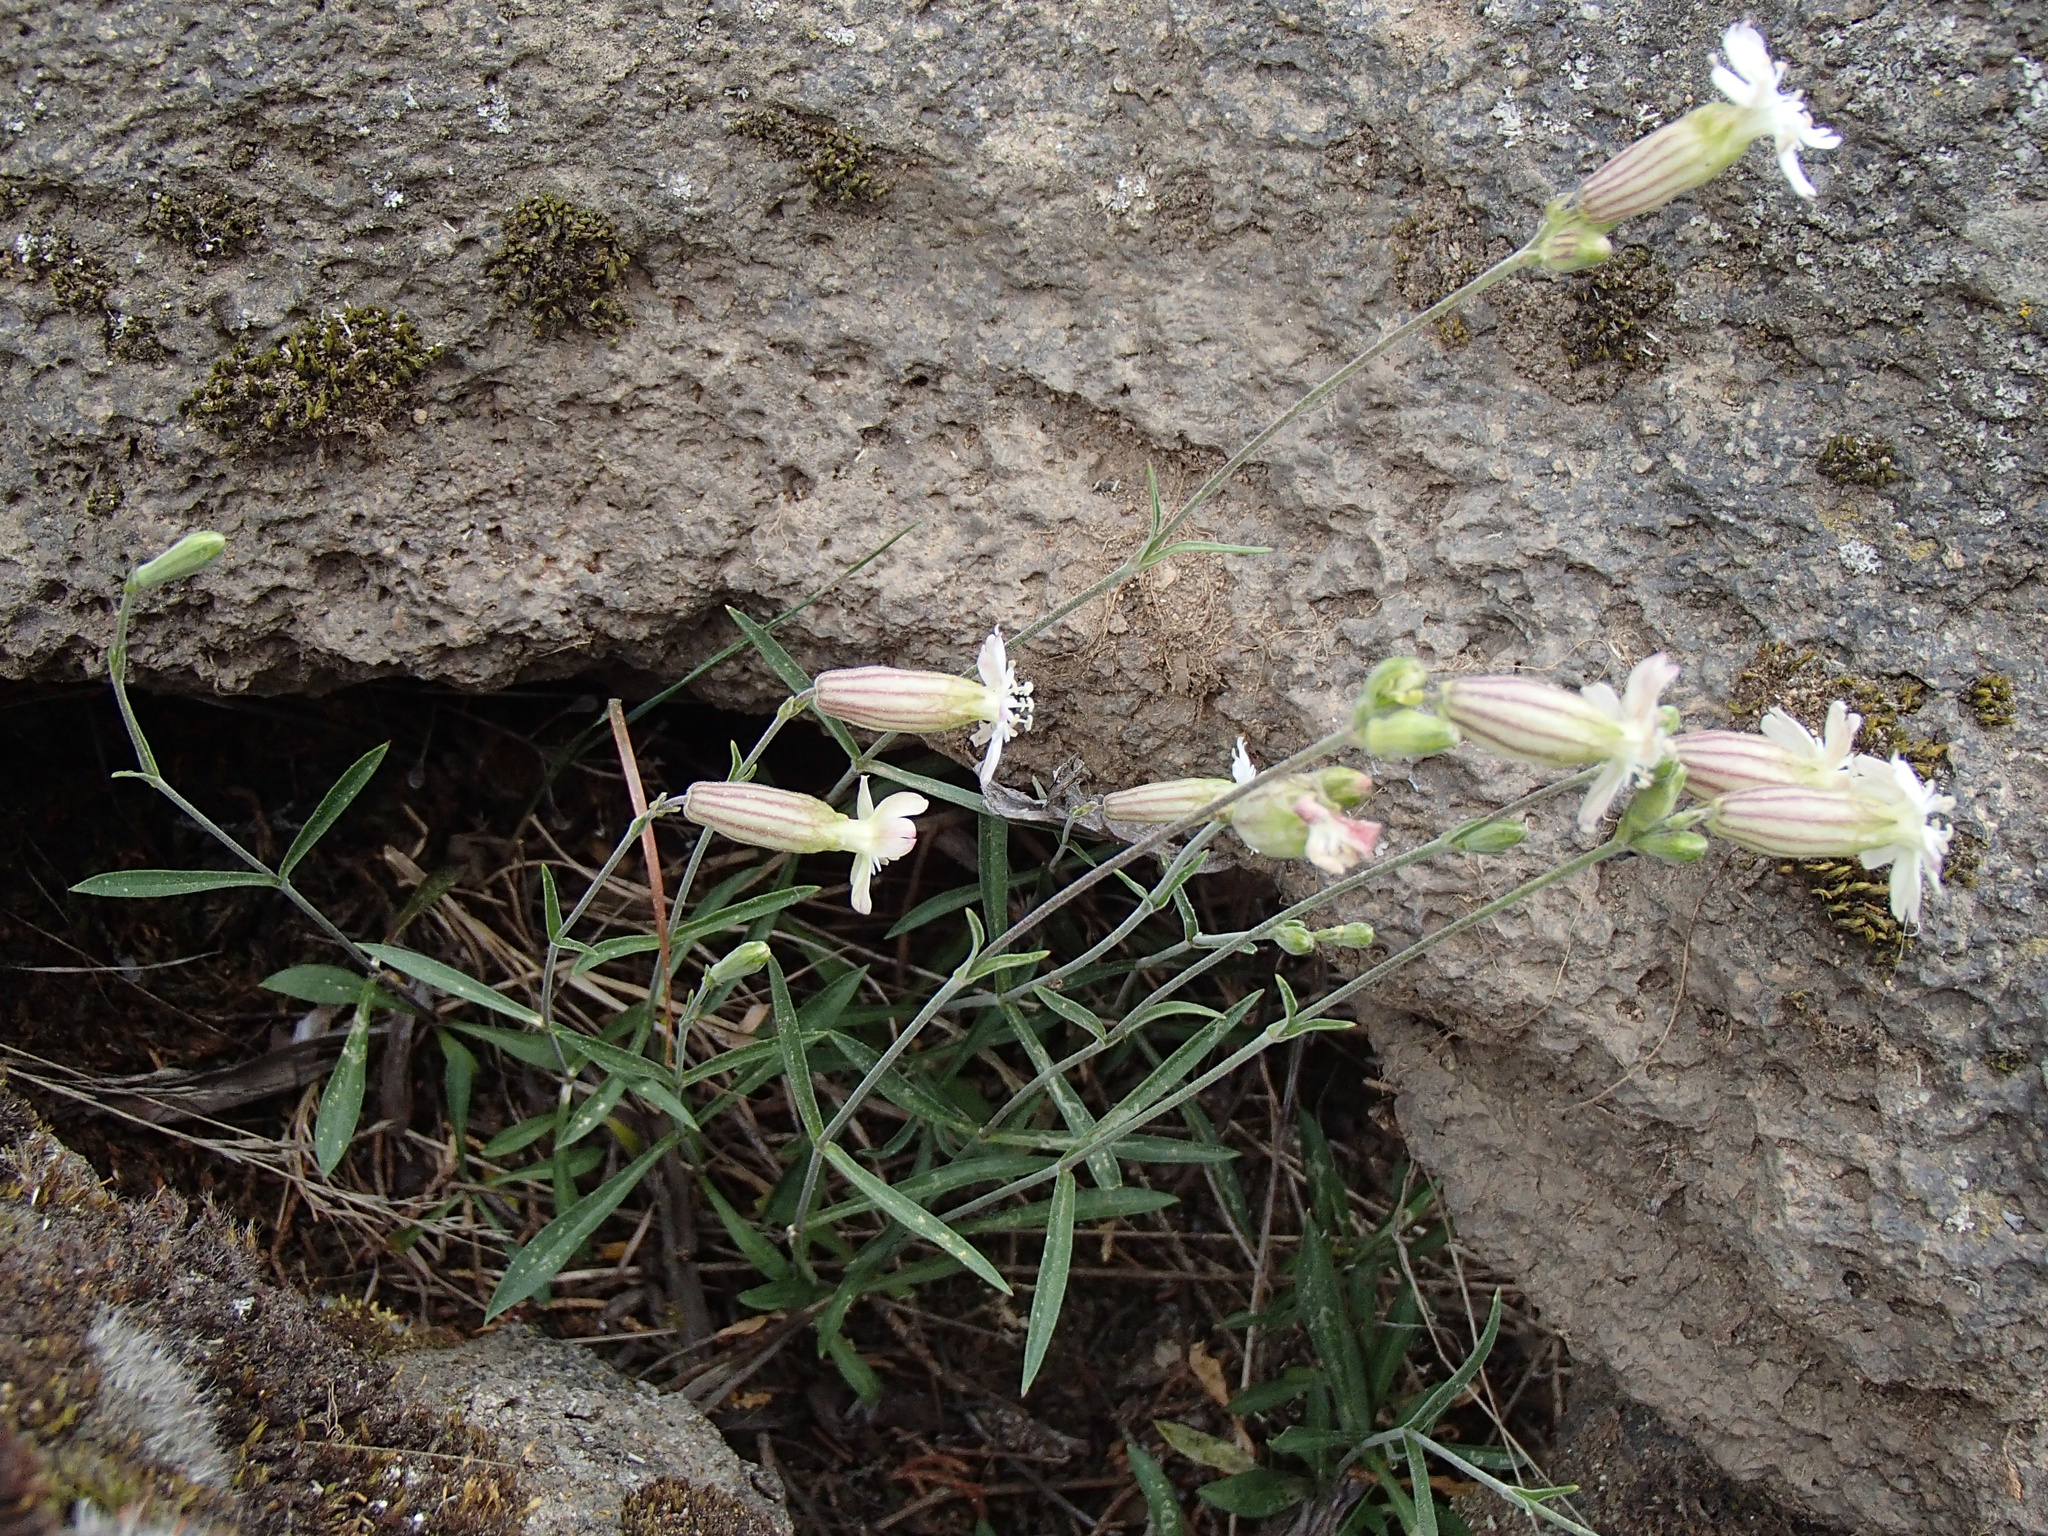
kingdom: Plantae
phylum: Tracheophyta
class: Magnoliopsida
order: Caryophyllales
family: Caryophyllaceae
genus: Silene
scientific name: Silene douglasii
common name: Douglas's catchfly
